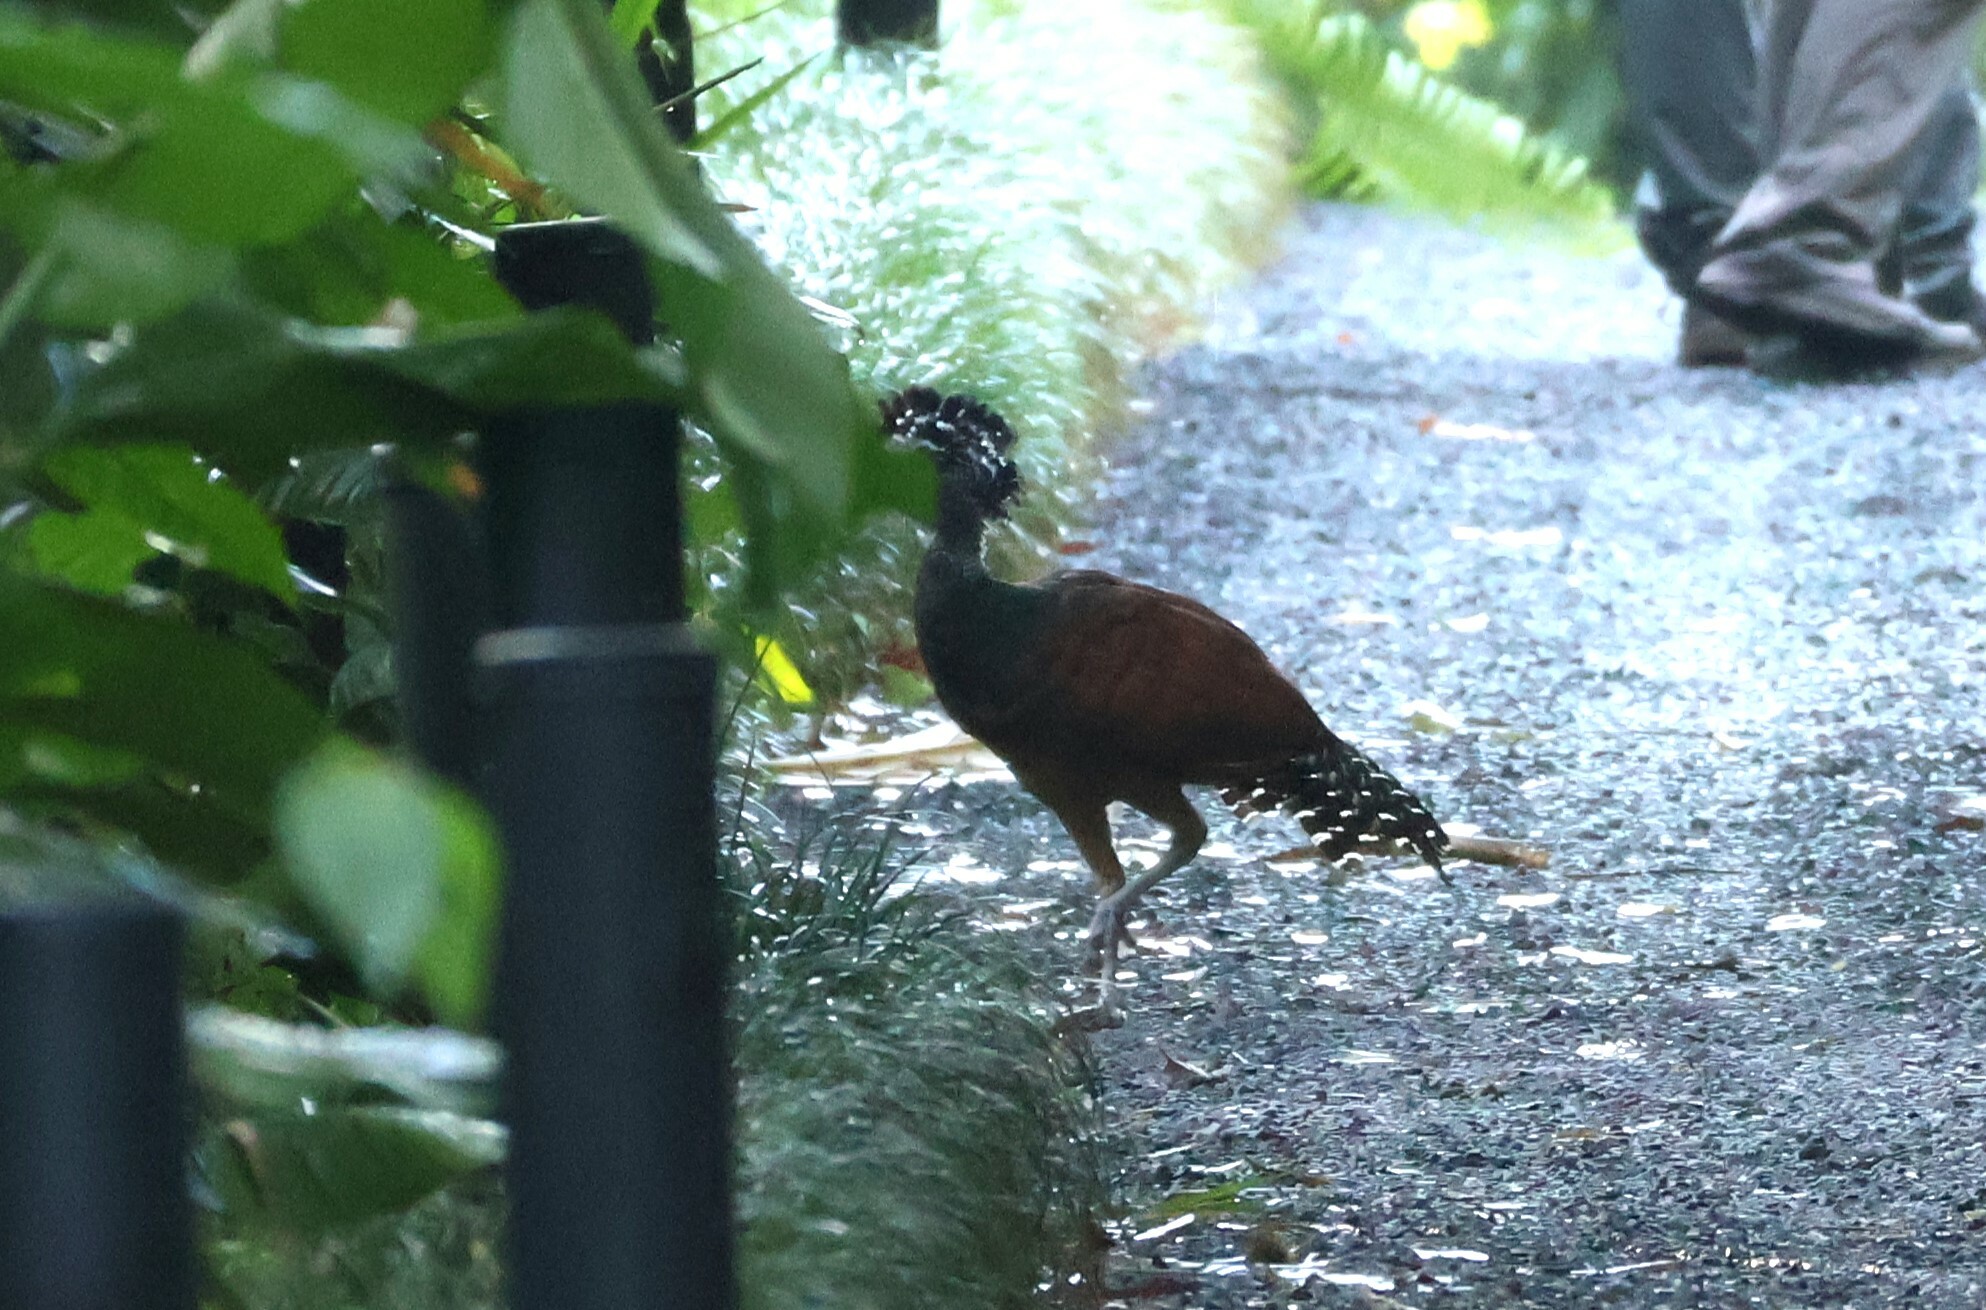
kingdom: Animalia
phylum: Chordata
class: Aves
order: Galliformes
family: Cracidae
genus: Crax
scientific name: Crax rubra
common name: Great curassow
